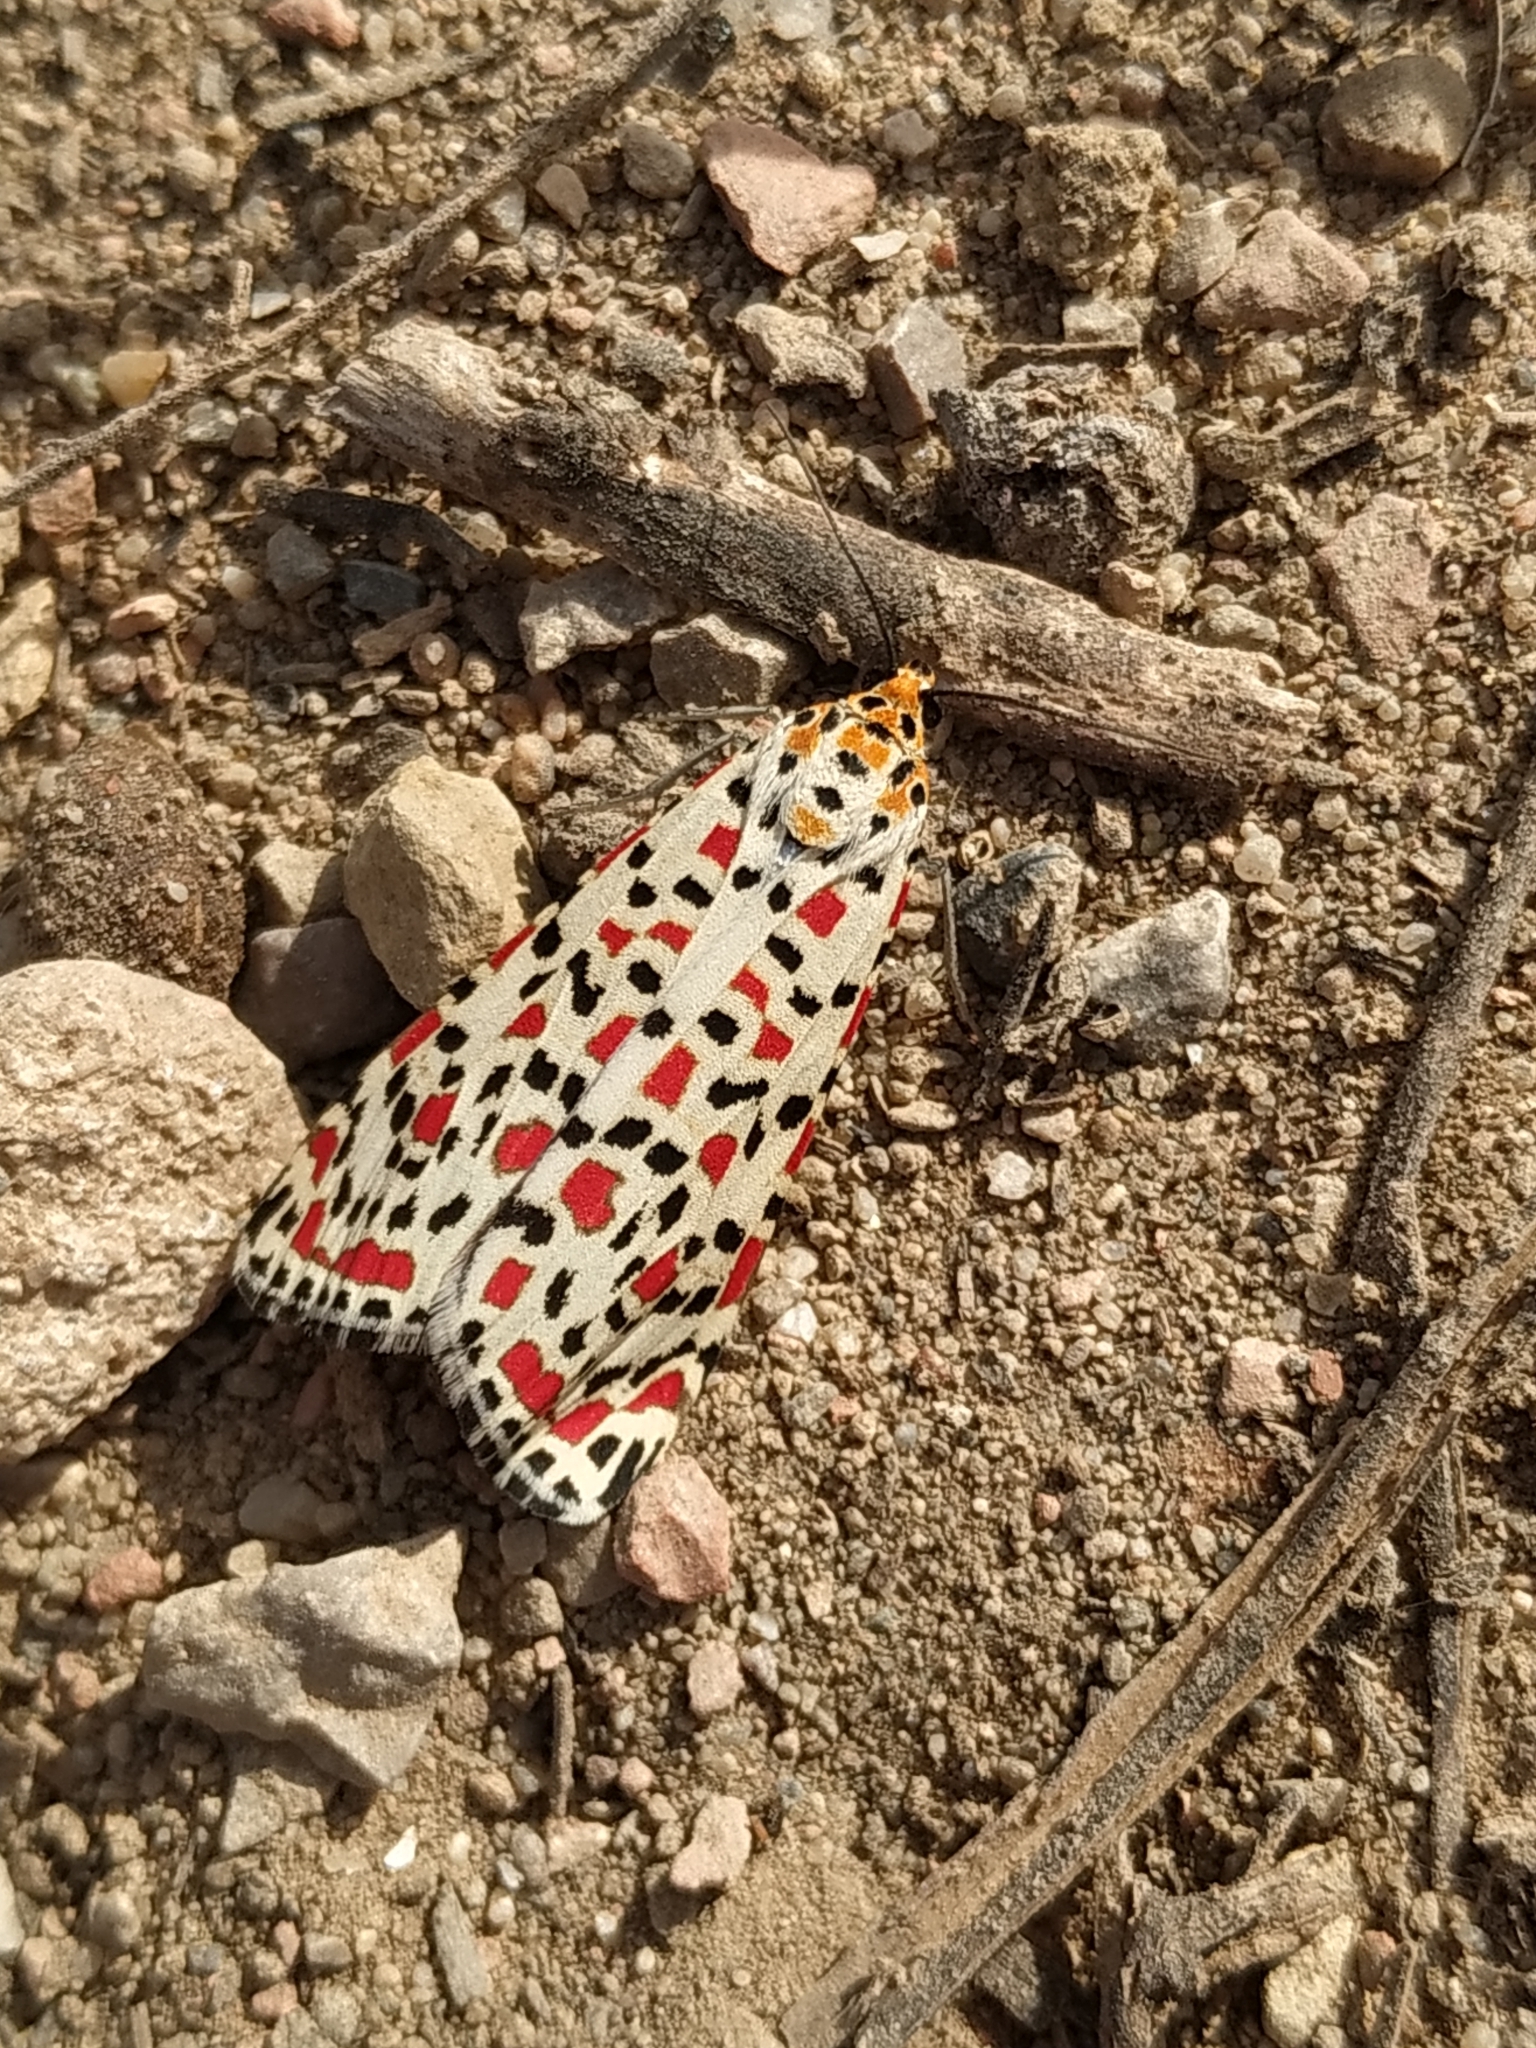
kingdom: Animalia
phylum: Arthropoda
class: Insecta
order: Lepidoptera
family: Erebidae
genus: Utetheisa
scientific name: Utetheisa pulchella
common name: Crimson speckled
